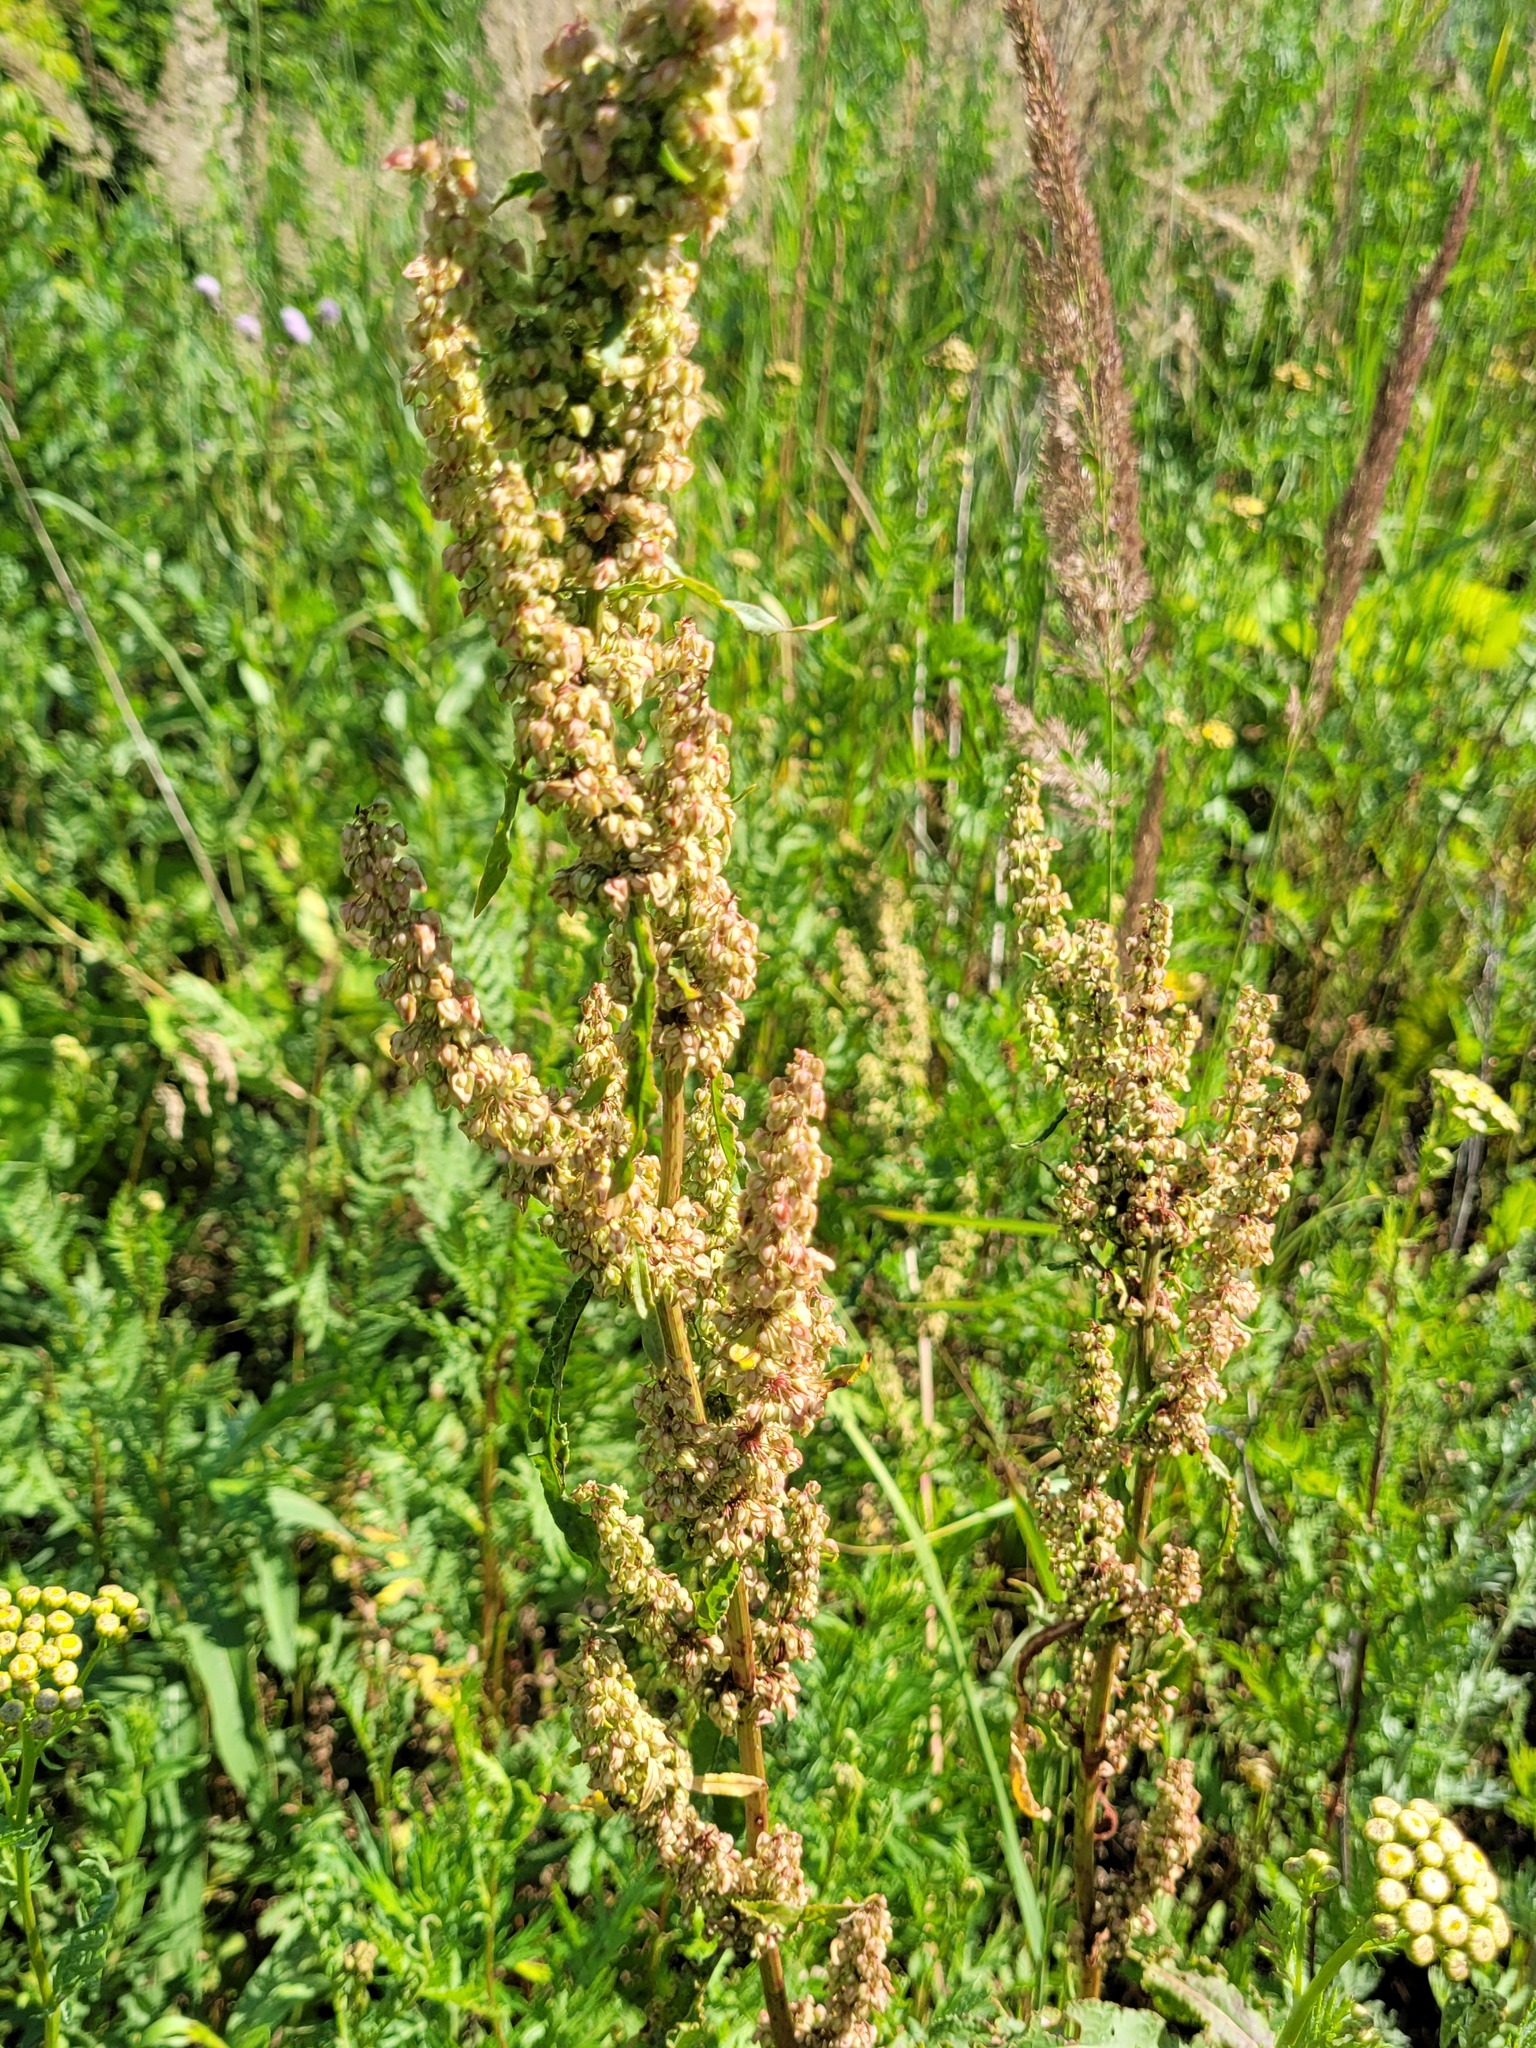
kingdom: Plantae
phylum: Tracheophyta
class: Magnoliopsida
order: Caryophyllales
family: Polygonaceae
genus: Rumex
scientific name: Rumex crispus
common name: Curled dock
